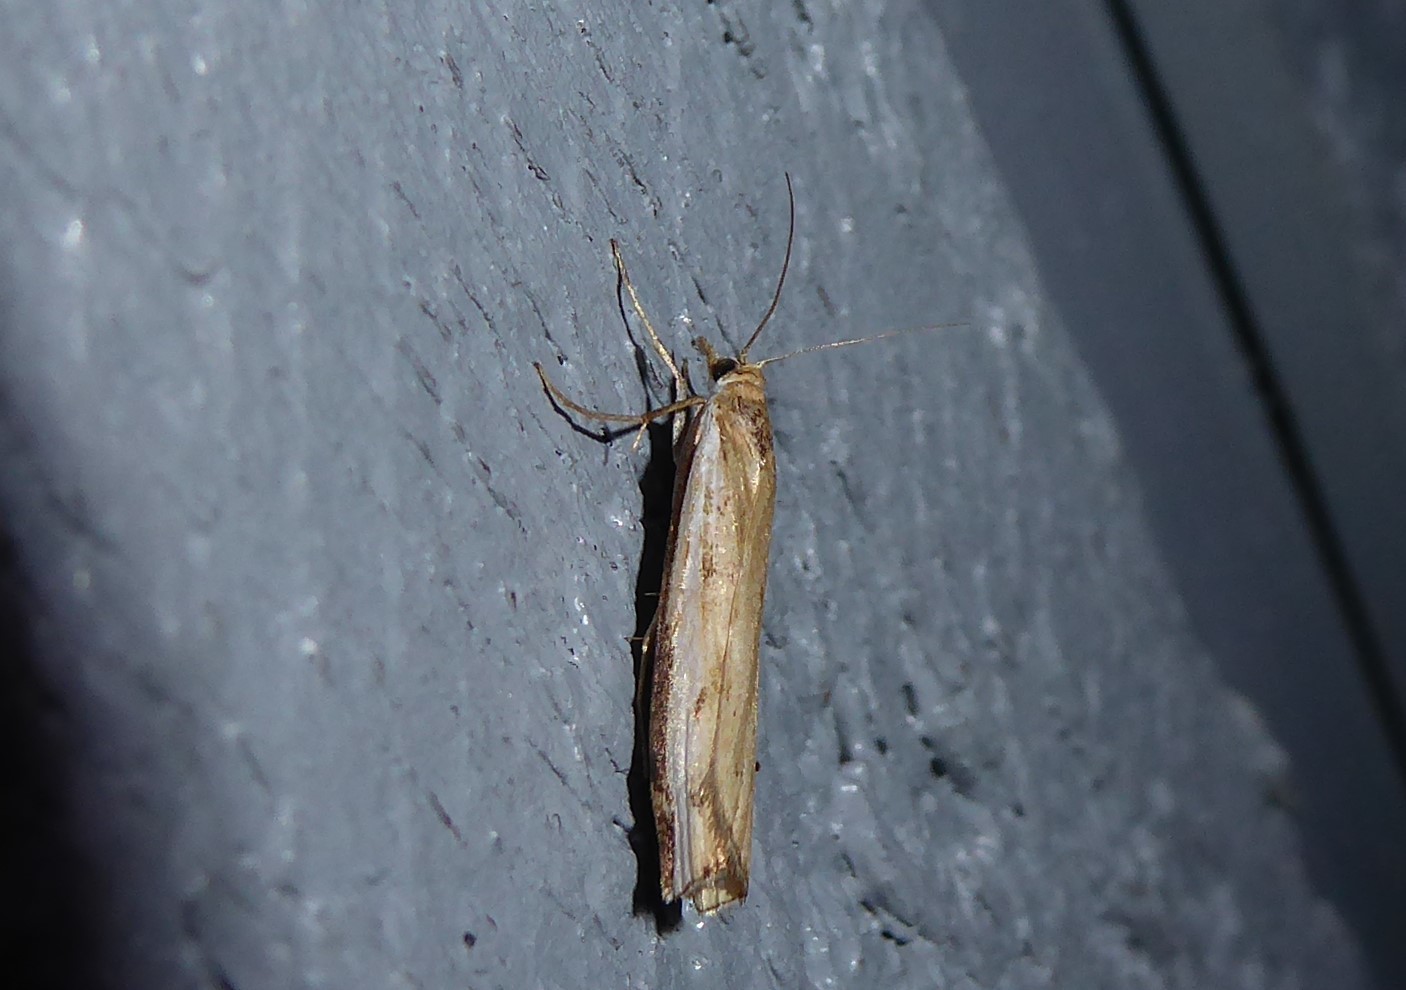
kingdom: Animalia
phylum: Arthropoda
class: Insecta
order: Lepidoptera
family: Crambidae
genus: Orocrambus
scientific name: Orocrambus flexuosellus
